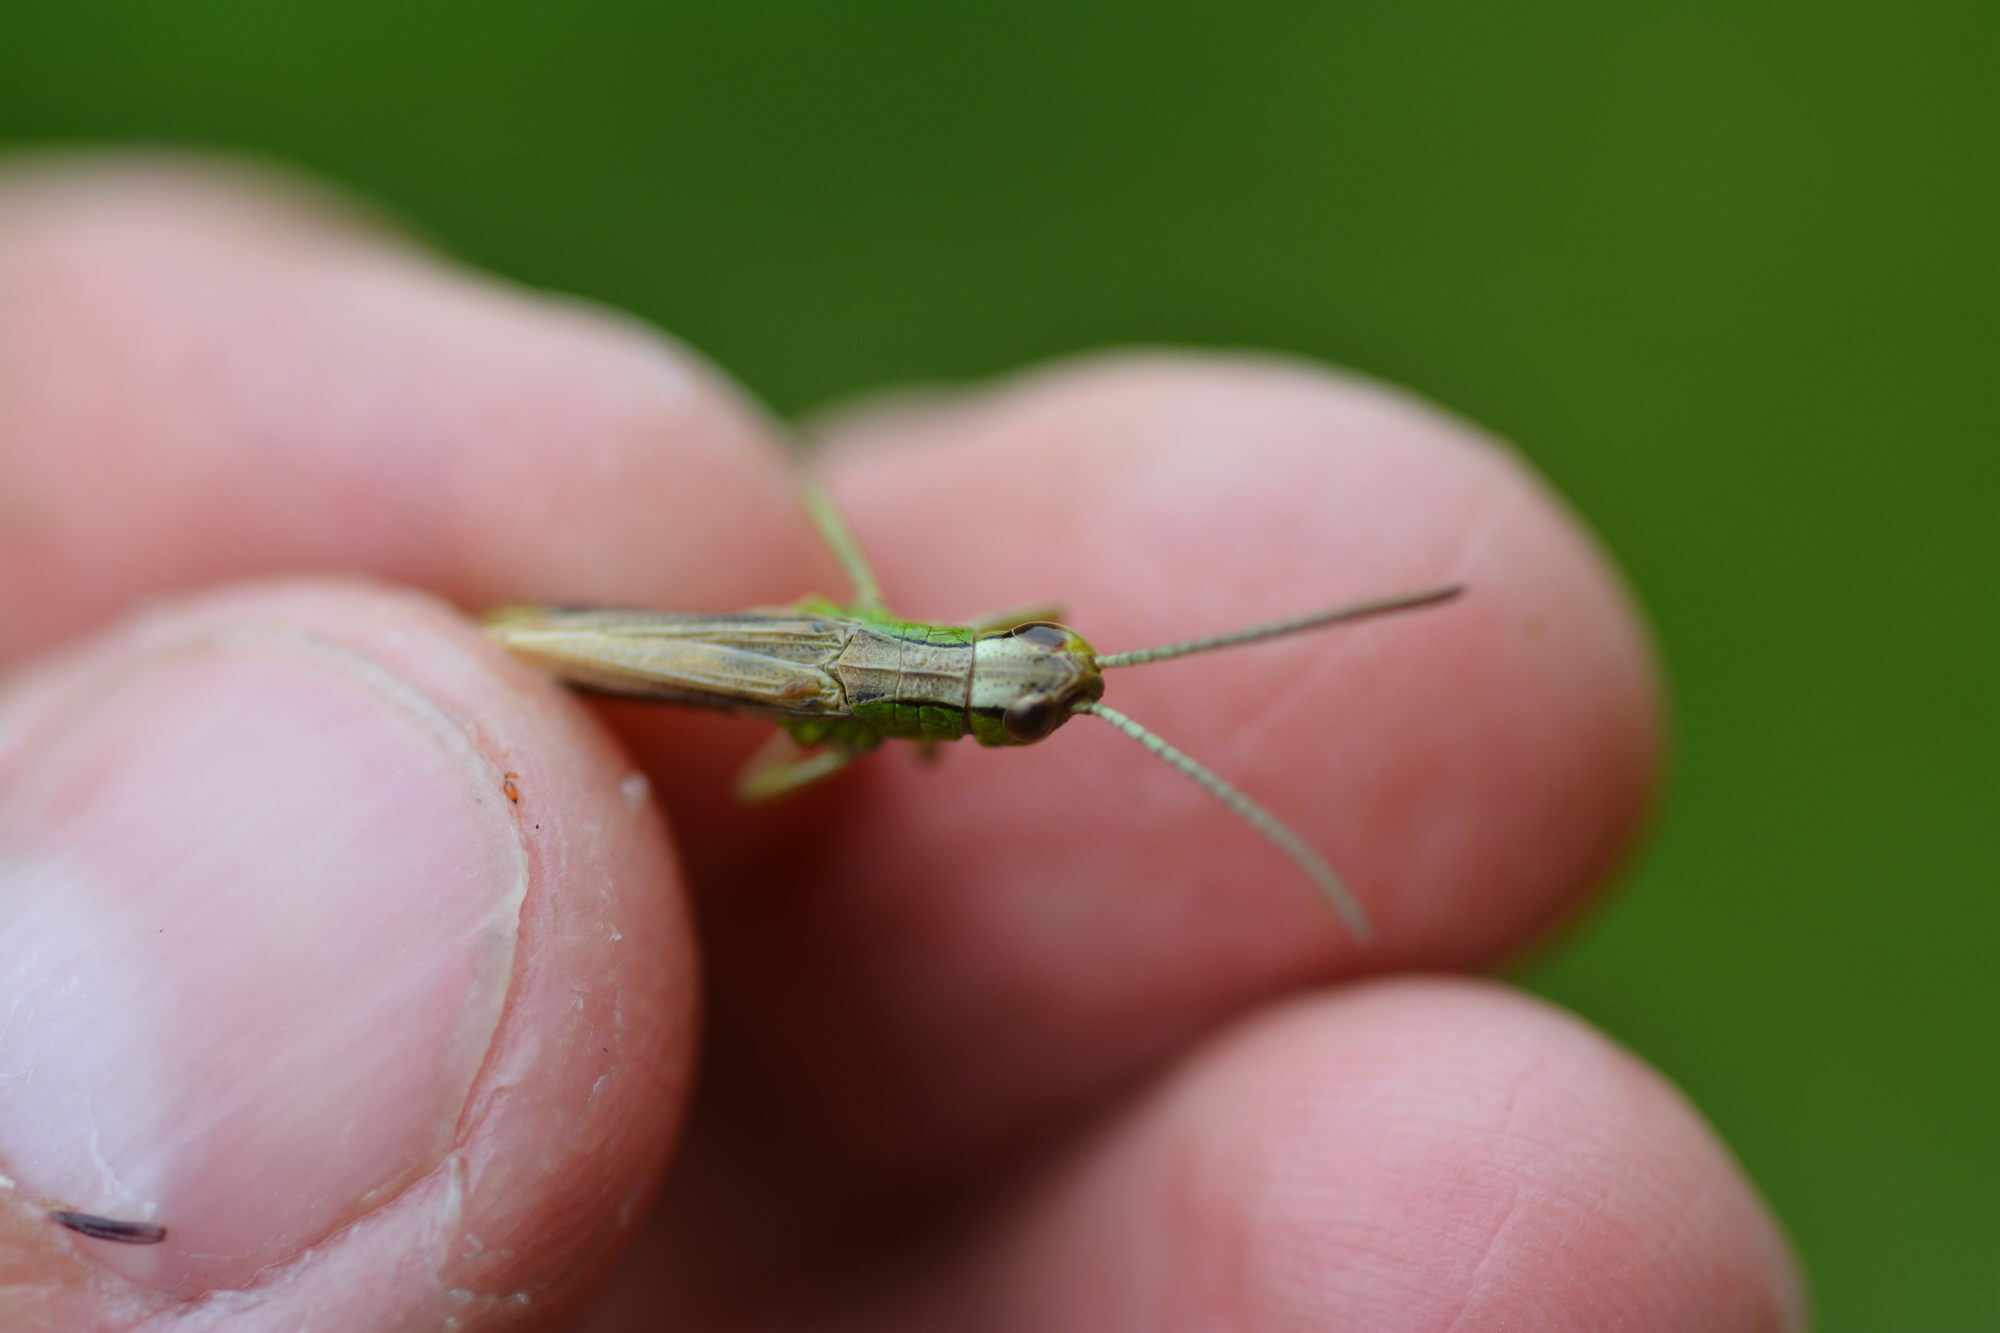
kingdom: Animalia
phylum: Arthropoda
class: Insecta
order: Orthoptera
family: Acrididae
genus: Pseudochorthippus
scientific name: Pseudochorthippus parallelus
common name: Meadow grasshopper
